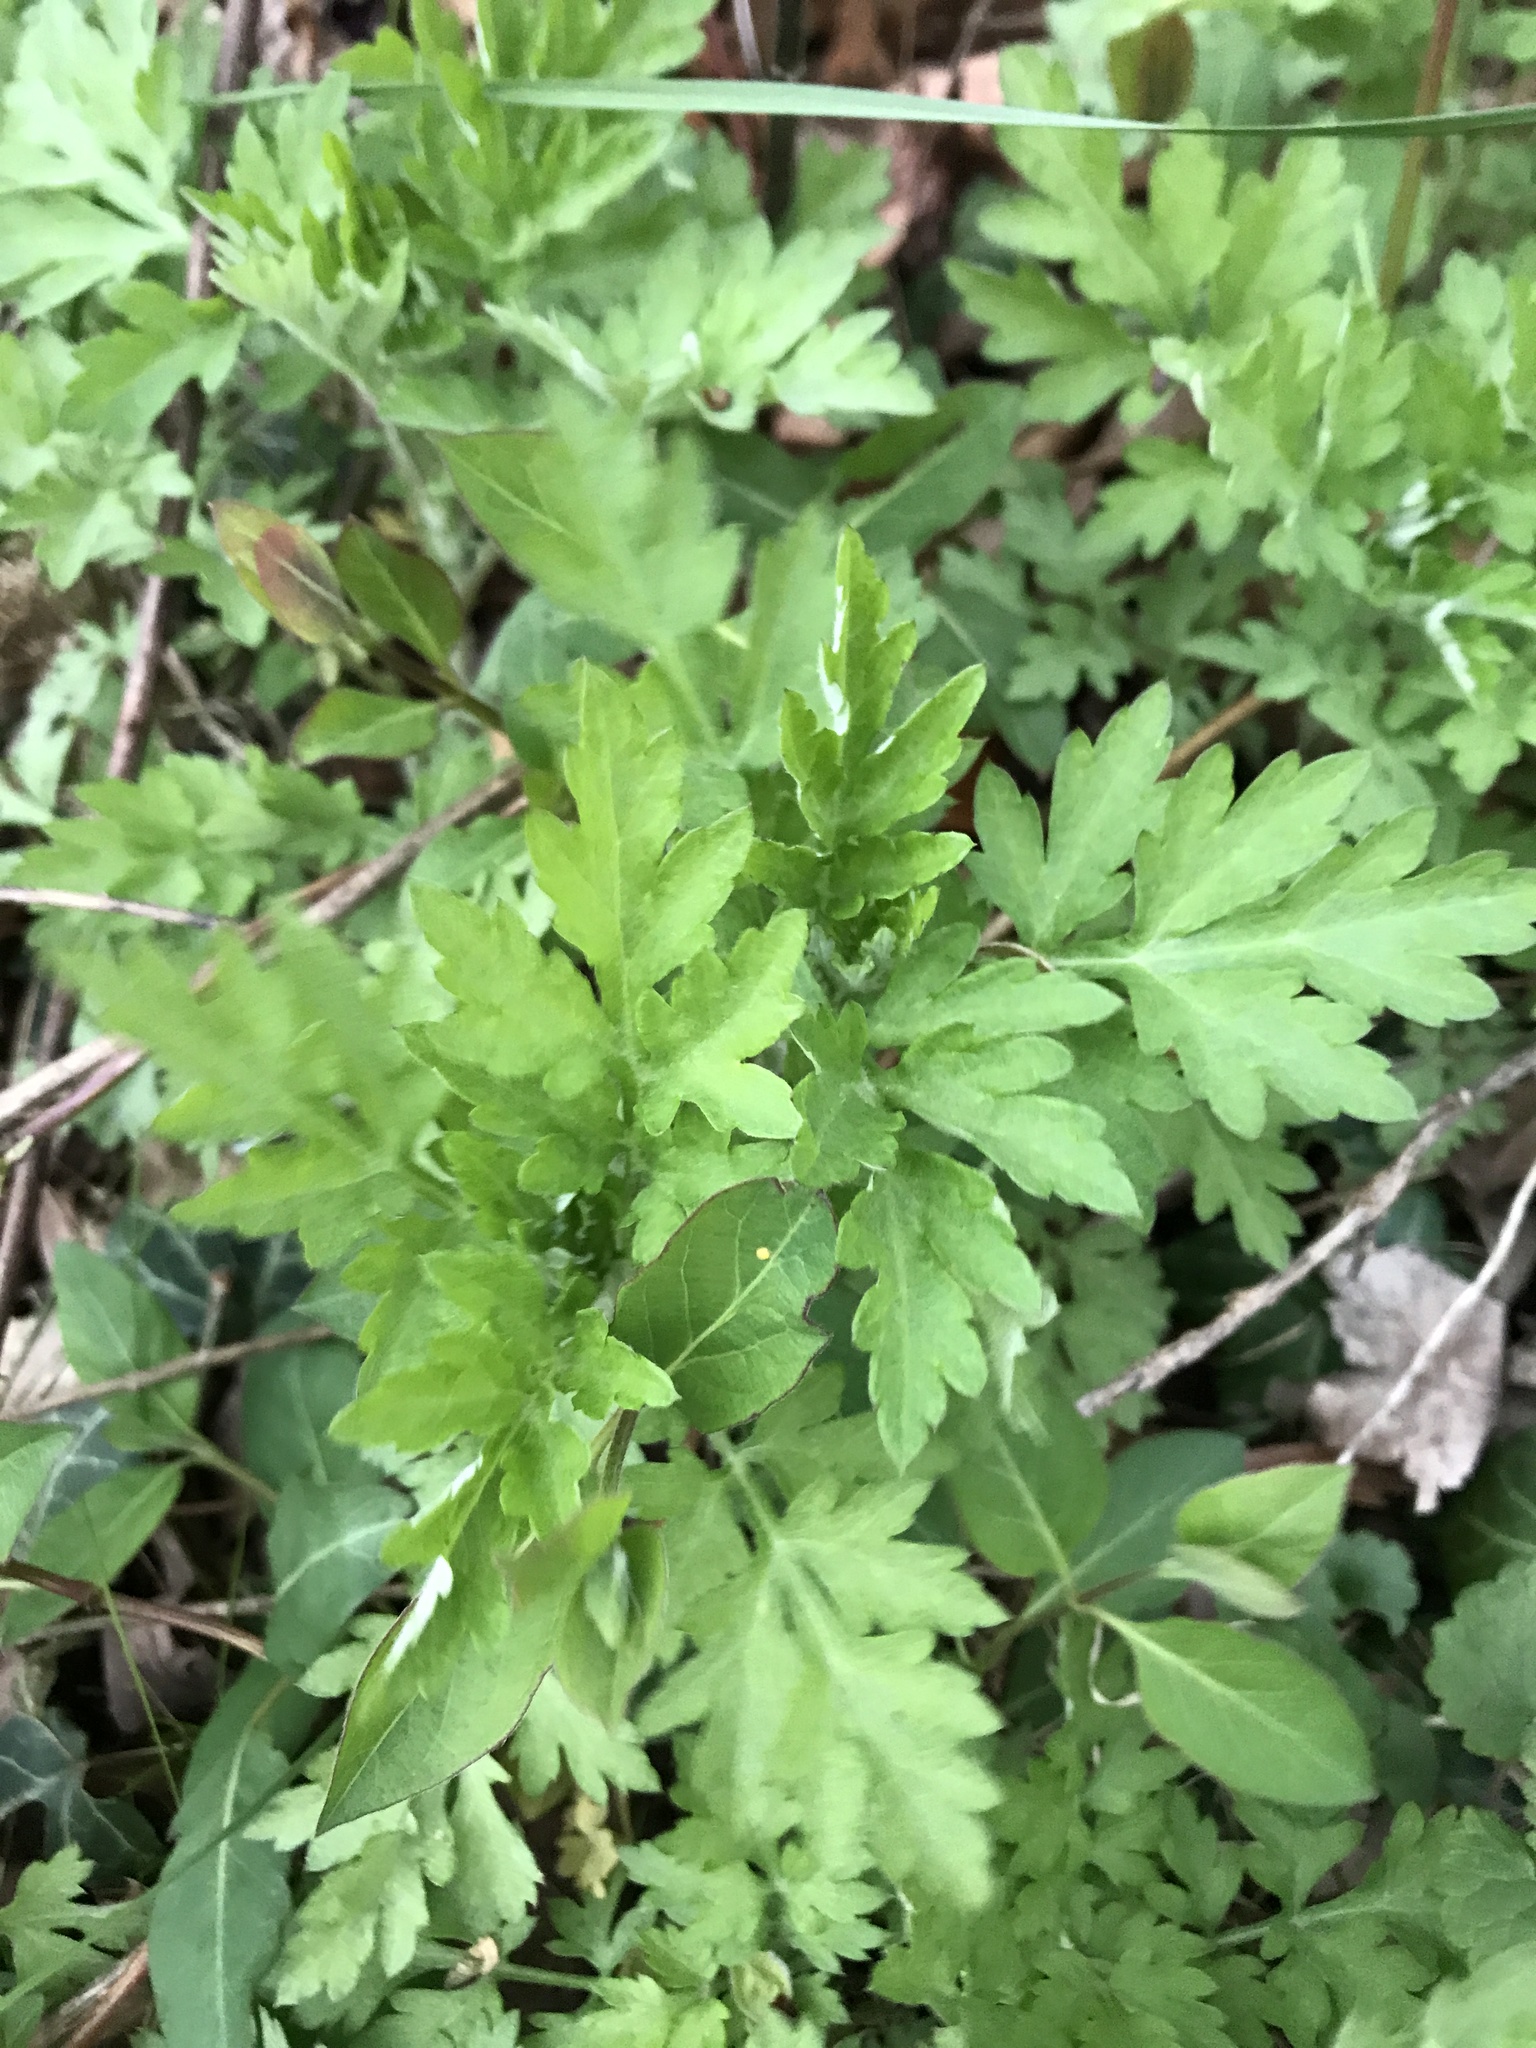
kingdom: Plantae
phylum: Tracheophyta
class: Magnoliopsida
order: Asterales
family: Asteraceae
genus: Artemisia
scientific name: Artemisia vulgaris
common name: Mugwort
